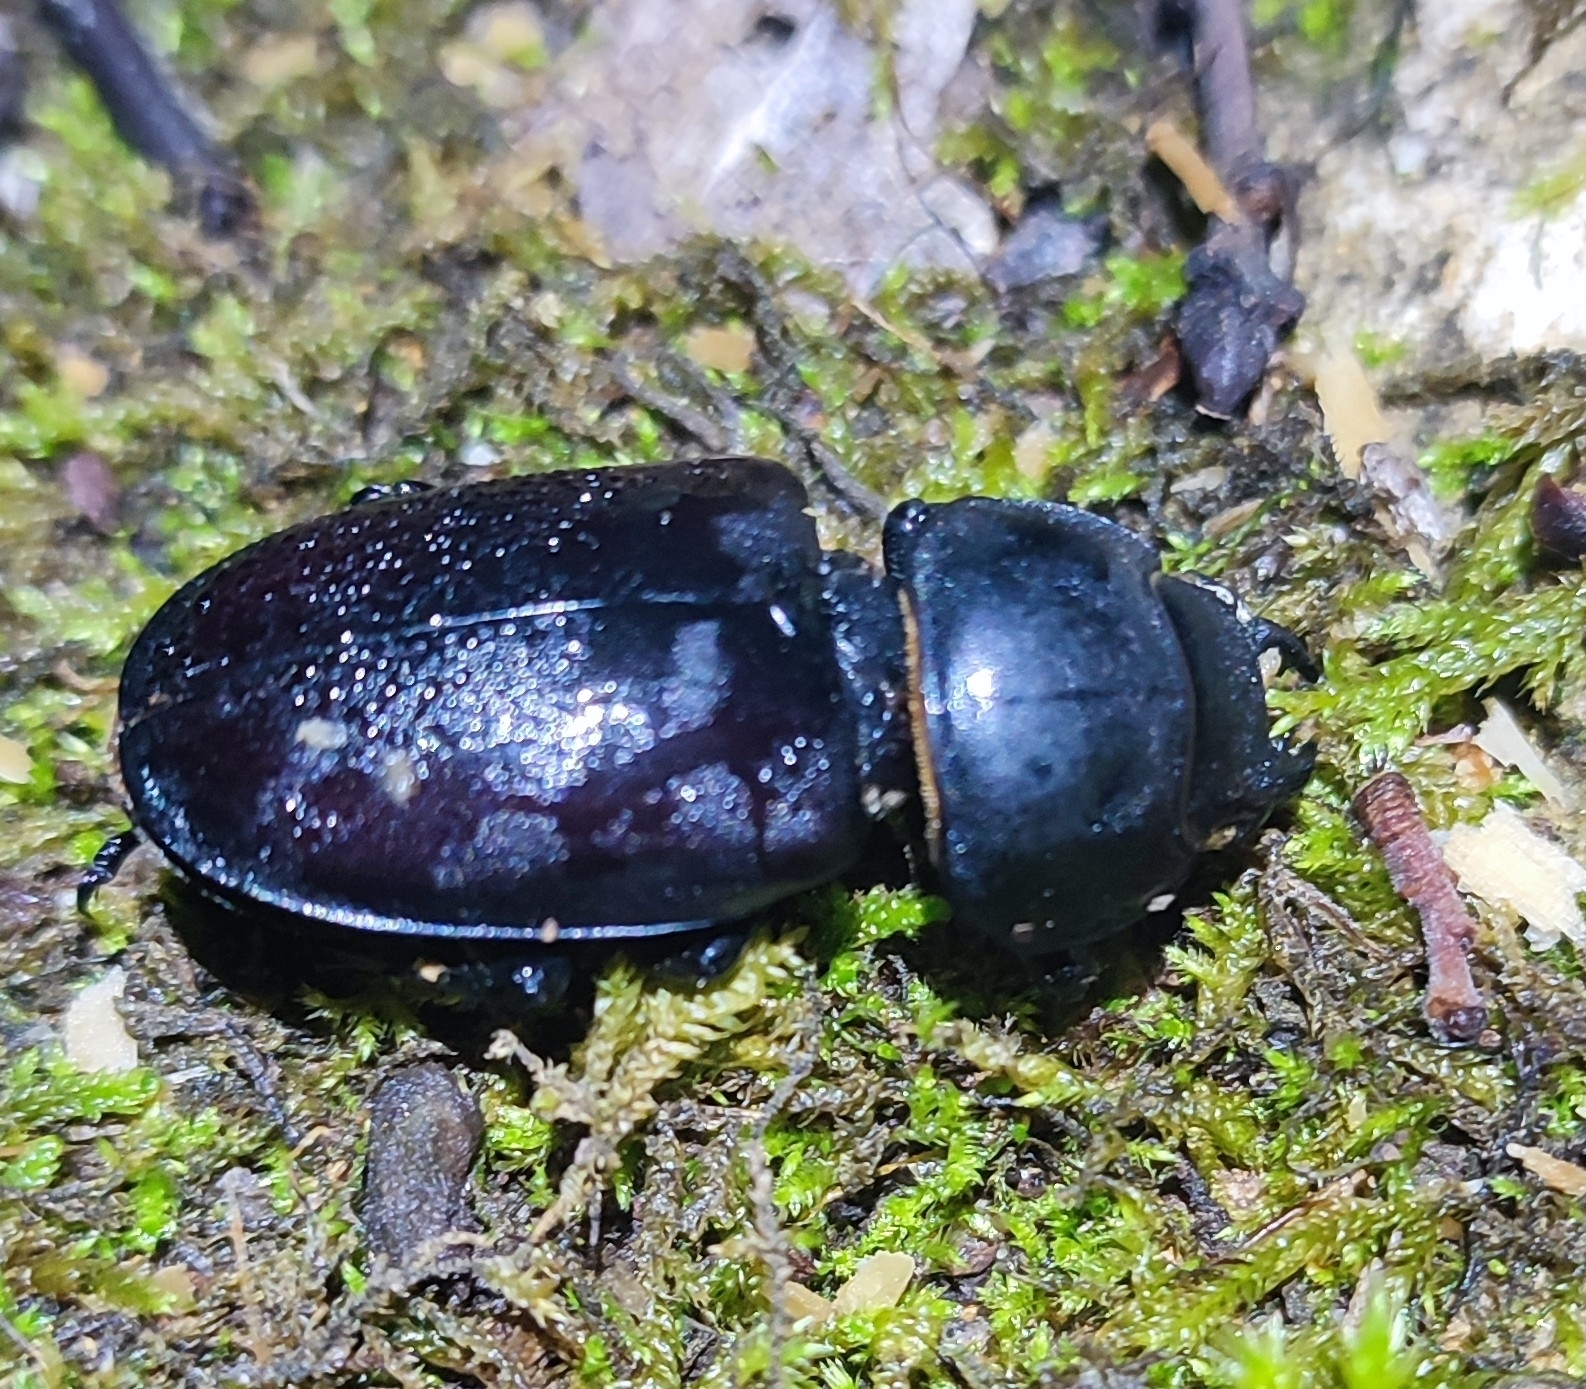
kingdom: Animalia
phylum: Arthropoda
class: Insecta
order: Coleoptera
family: Lucanidae
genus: Lucanus
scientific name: Lucanus cervus
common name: Stag beetle
